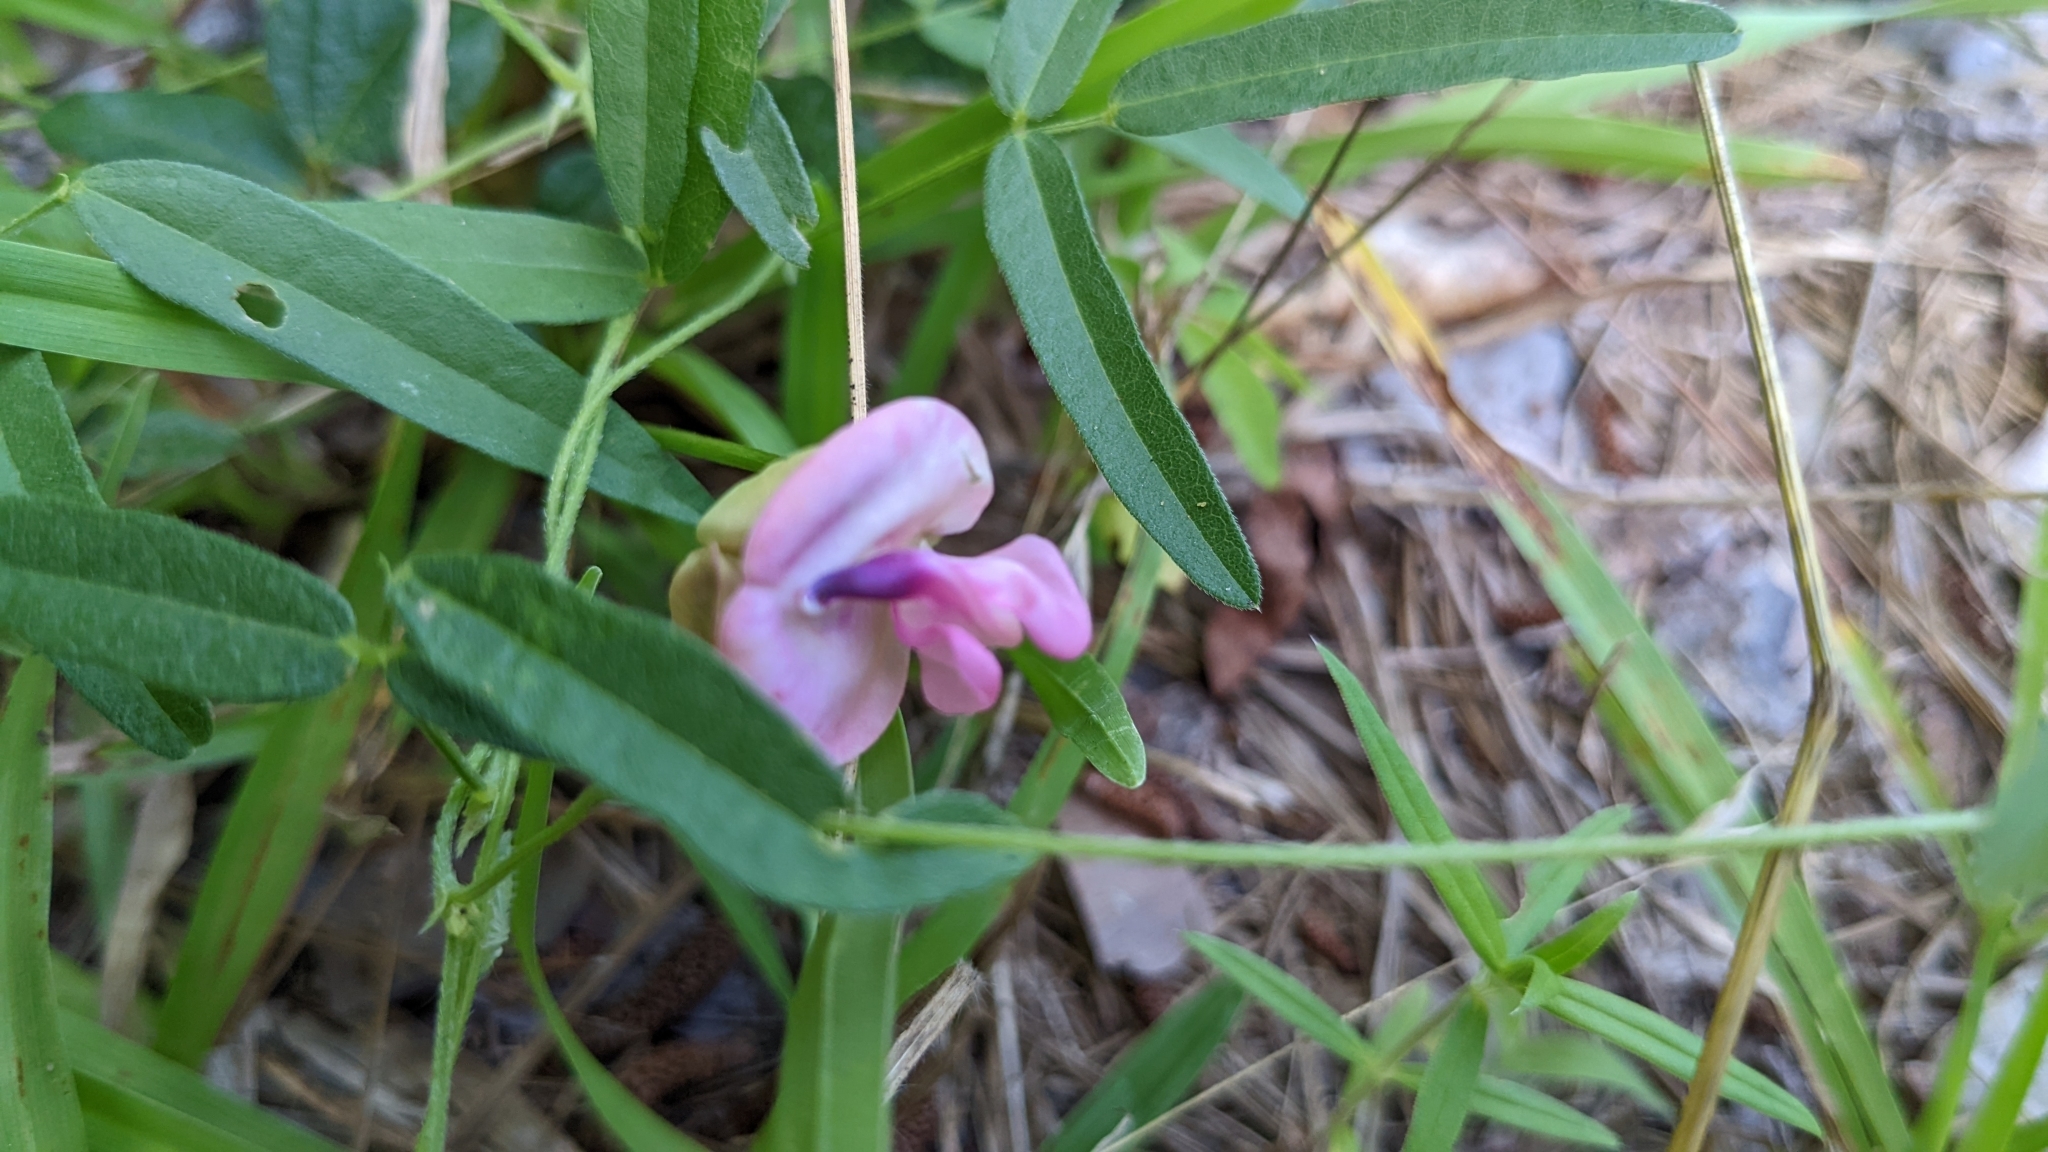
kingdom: Plantae
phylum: Tracheophyta
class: Magnoliopsida
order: Fabales
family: Fabaceae
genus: Strophostyles
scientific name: Strophostyles umbellata
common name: Perennial wild bean
